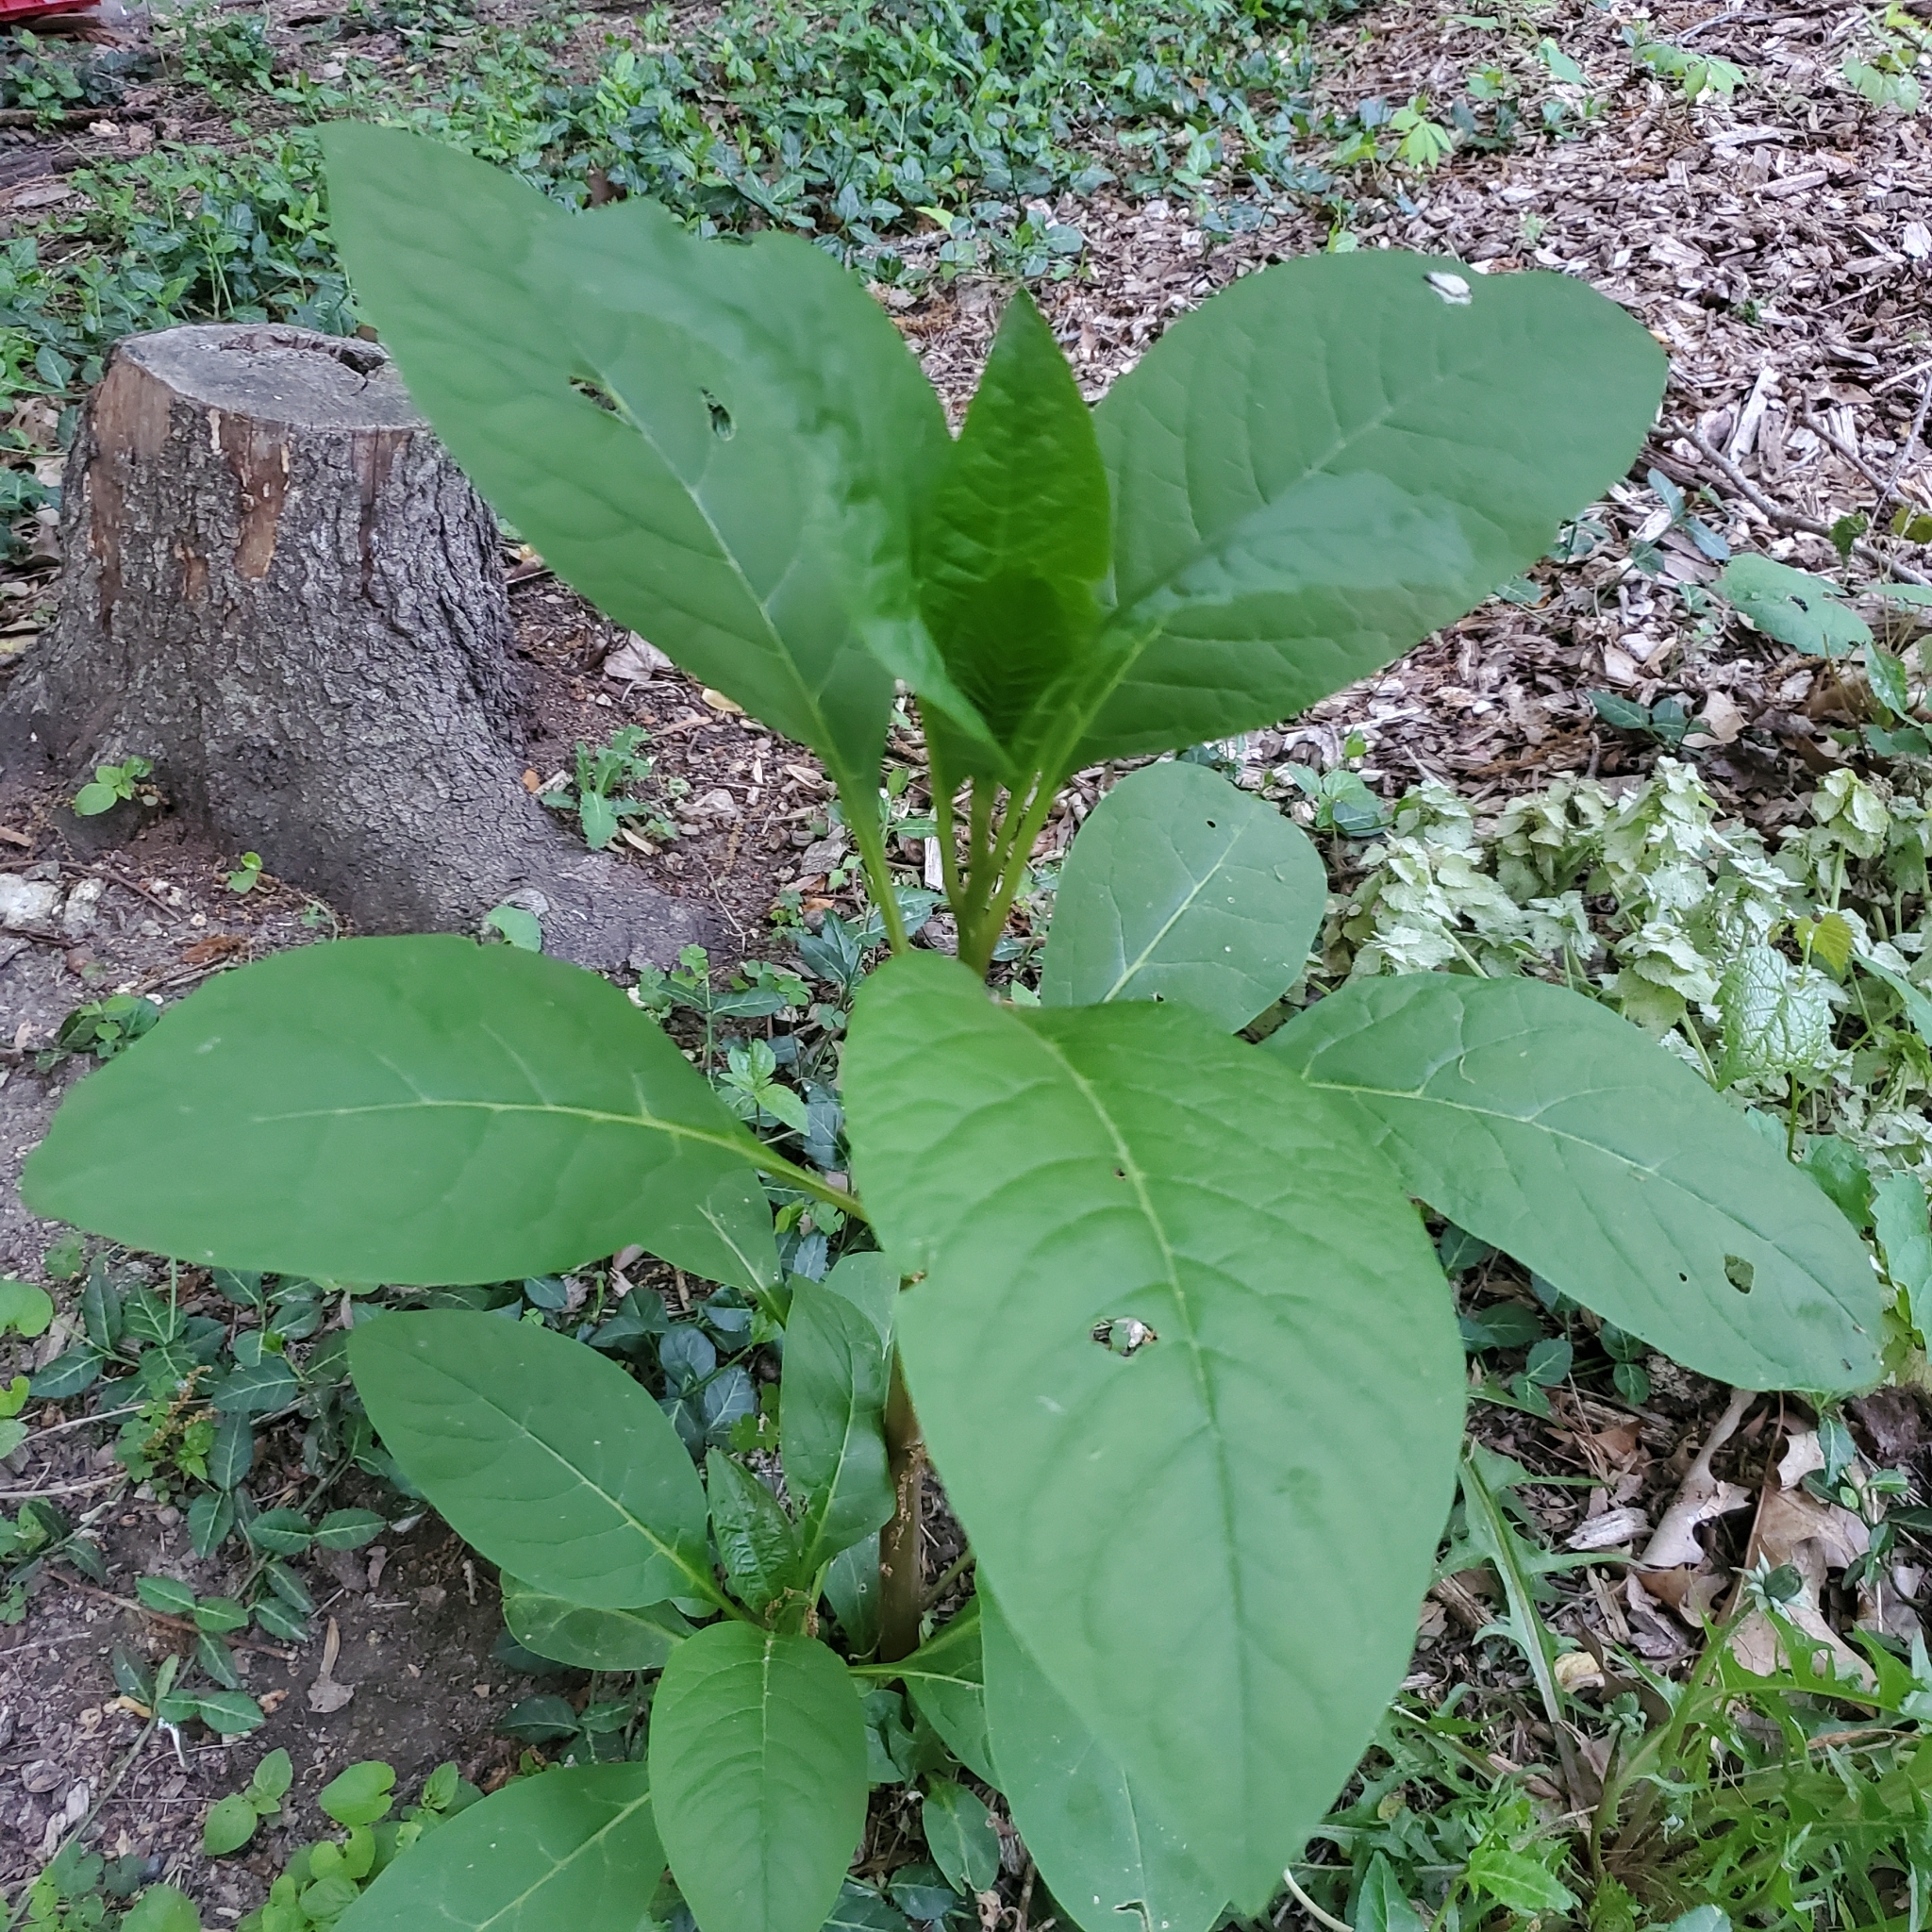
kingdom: Plantae
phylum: Tracheophyta
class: Magnoliopsida
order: Caryophyllales
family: Phytolaccaceae
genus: Phytolacca
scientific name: Phytolacca americana
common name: American pokeweed
